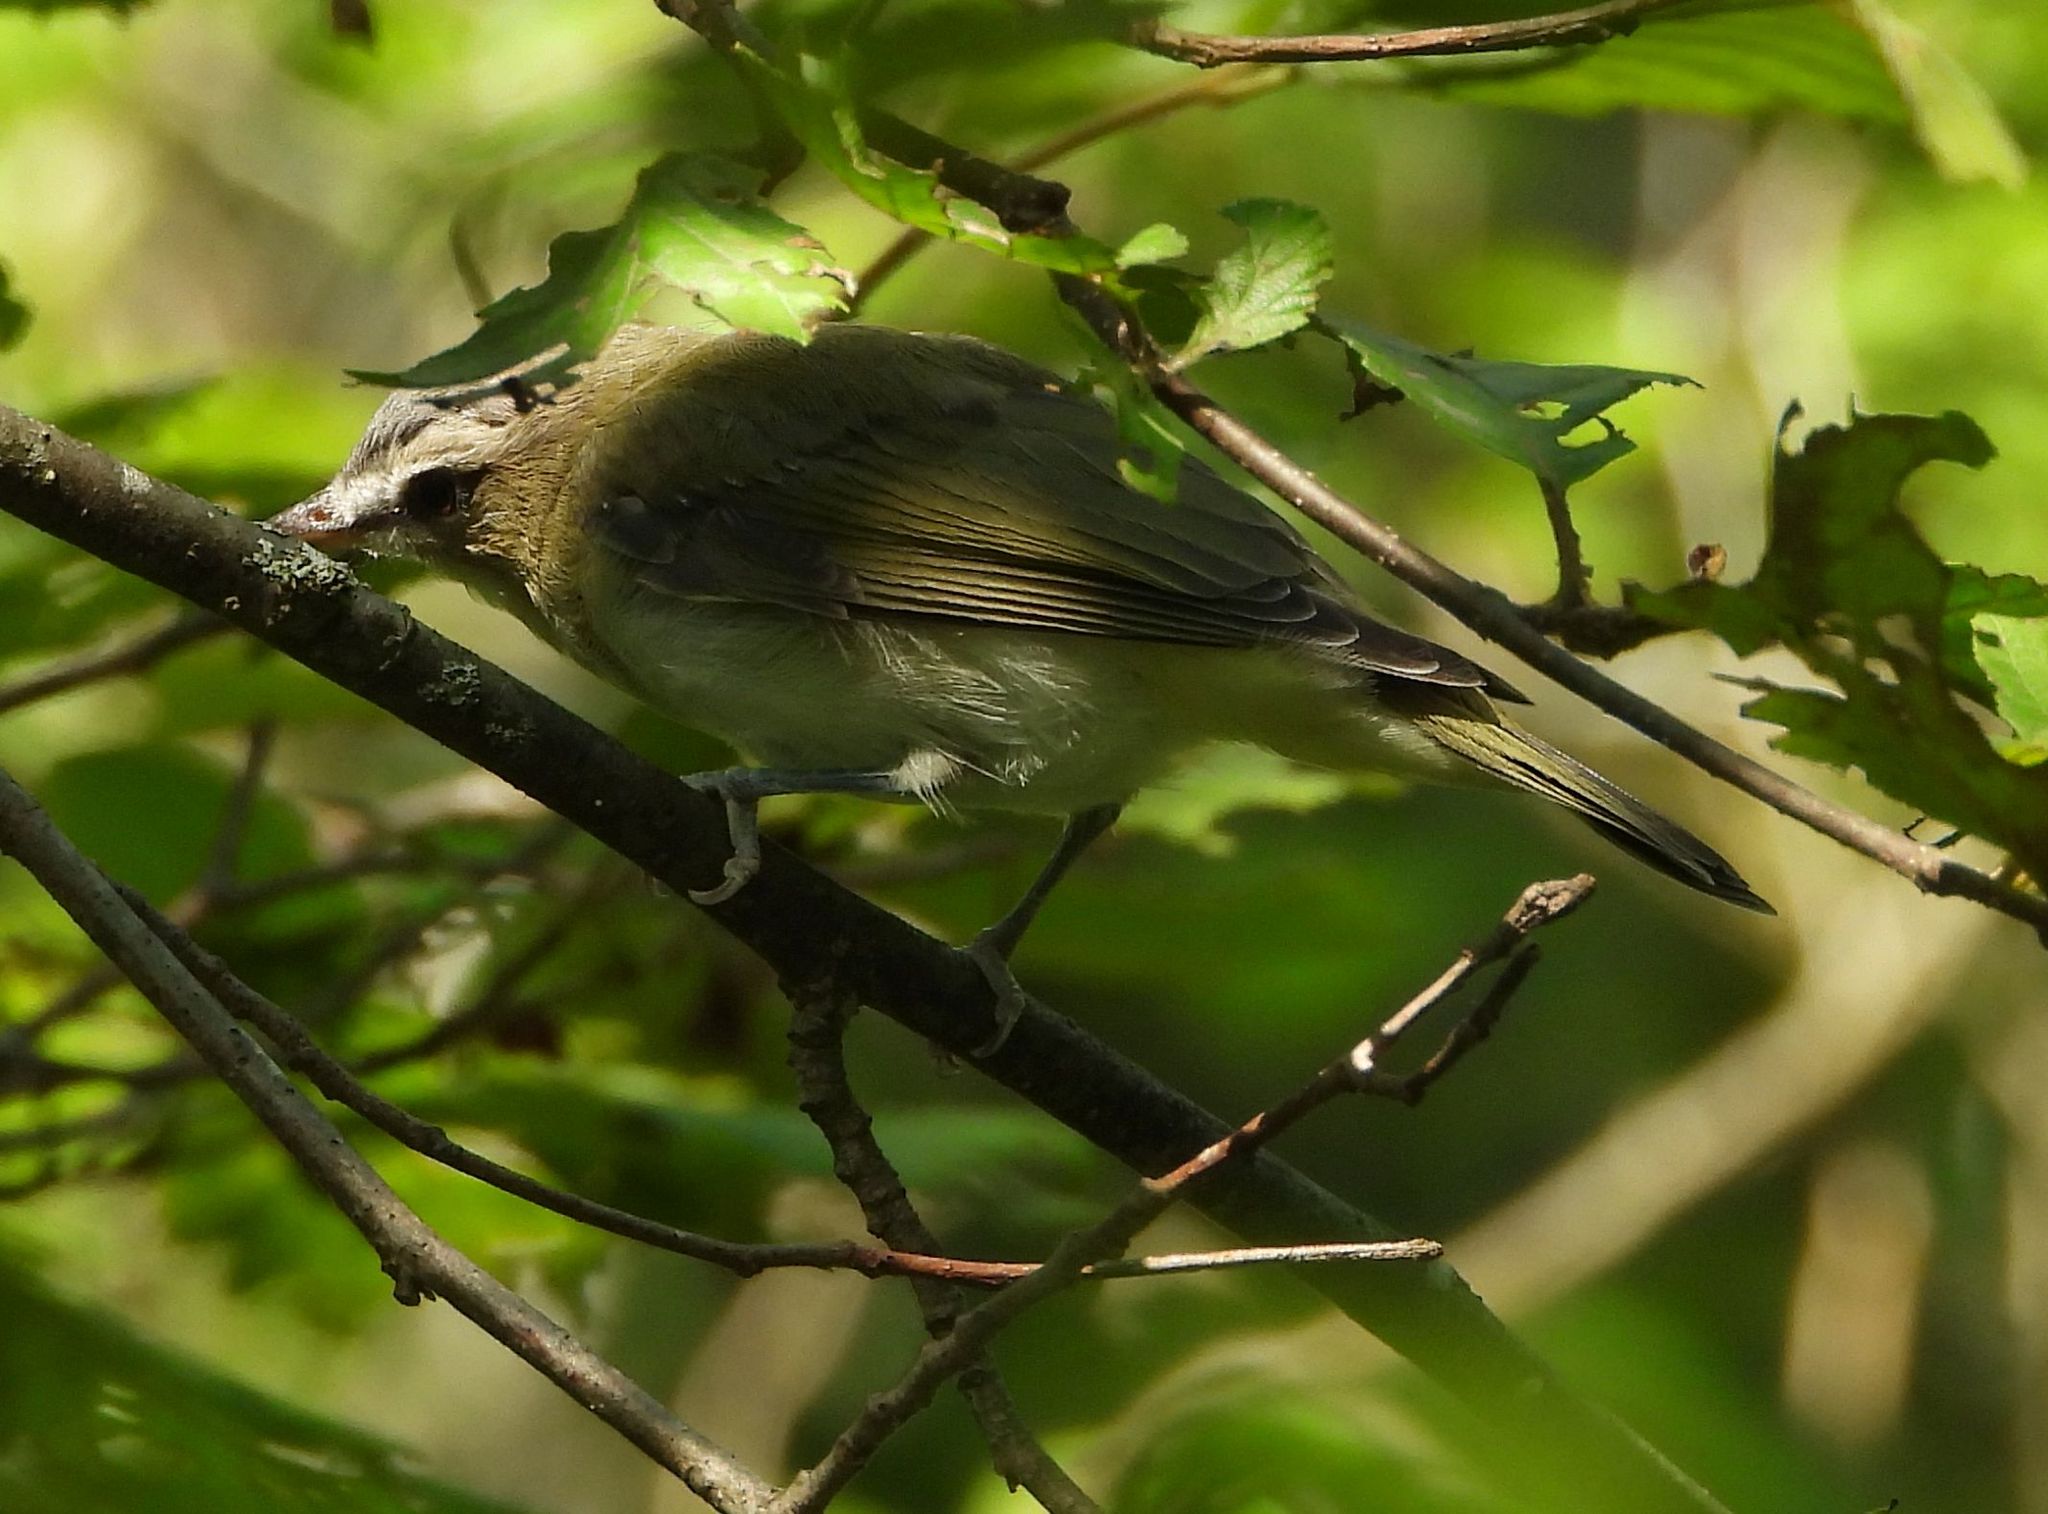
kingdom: Animalia
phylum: Chordata
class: Aves
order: Passeriformes
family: Vireonidae
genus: Vireo
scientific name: Vireo olivaceus
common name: Red-eyed vireo
